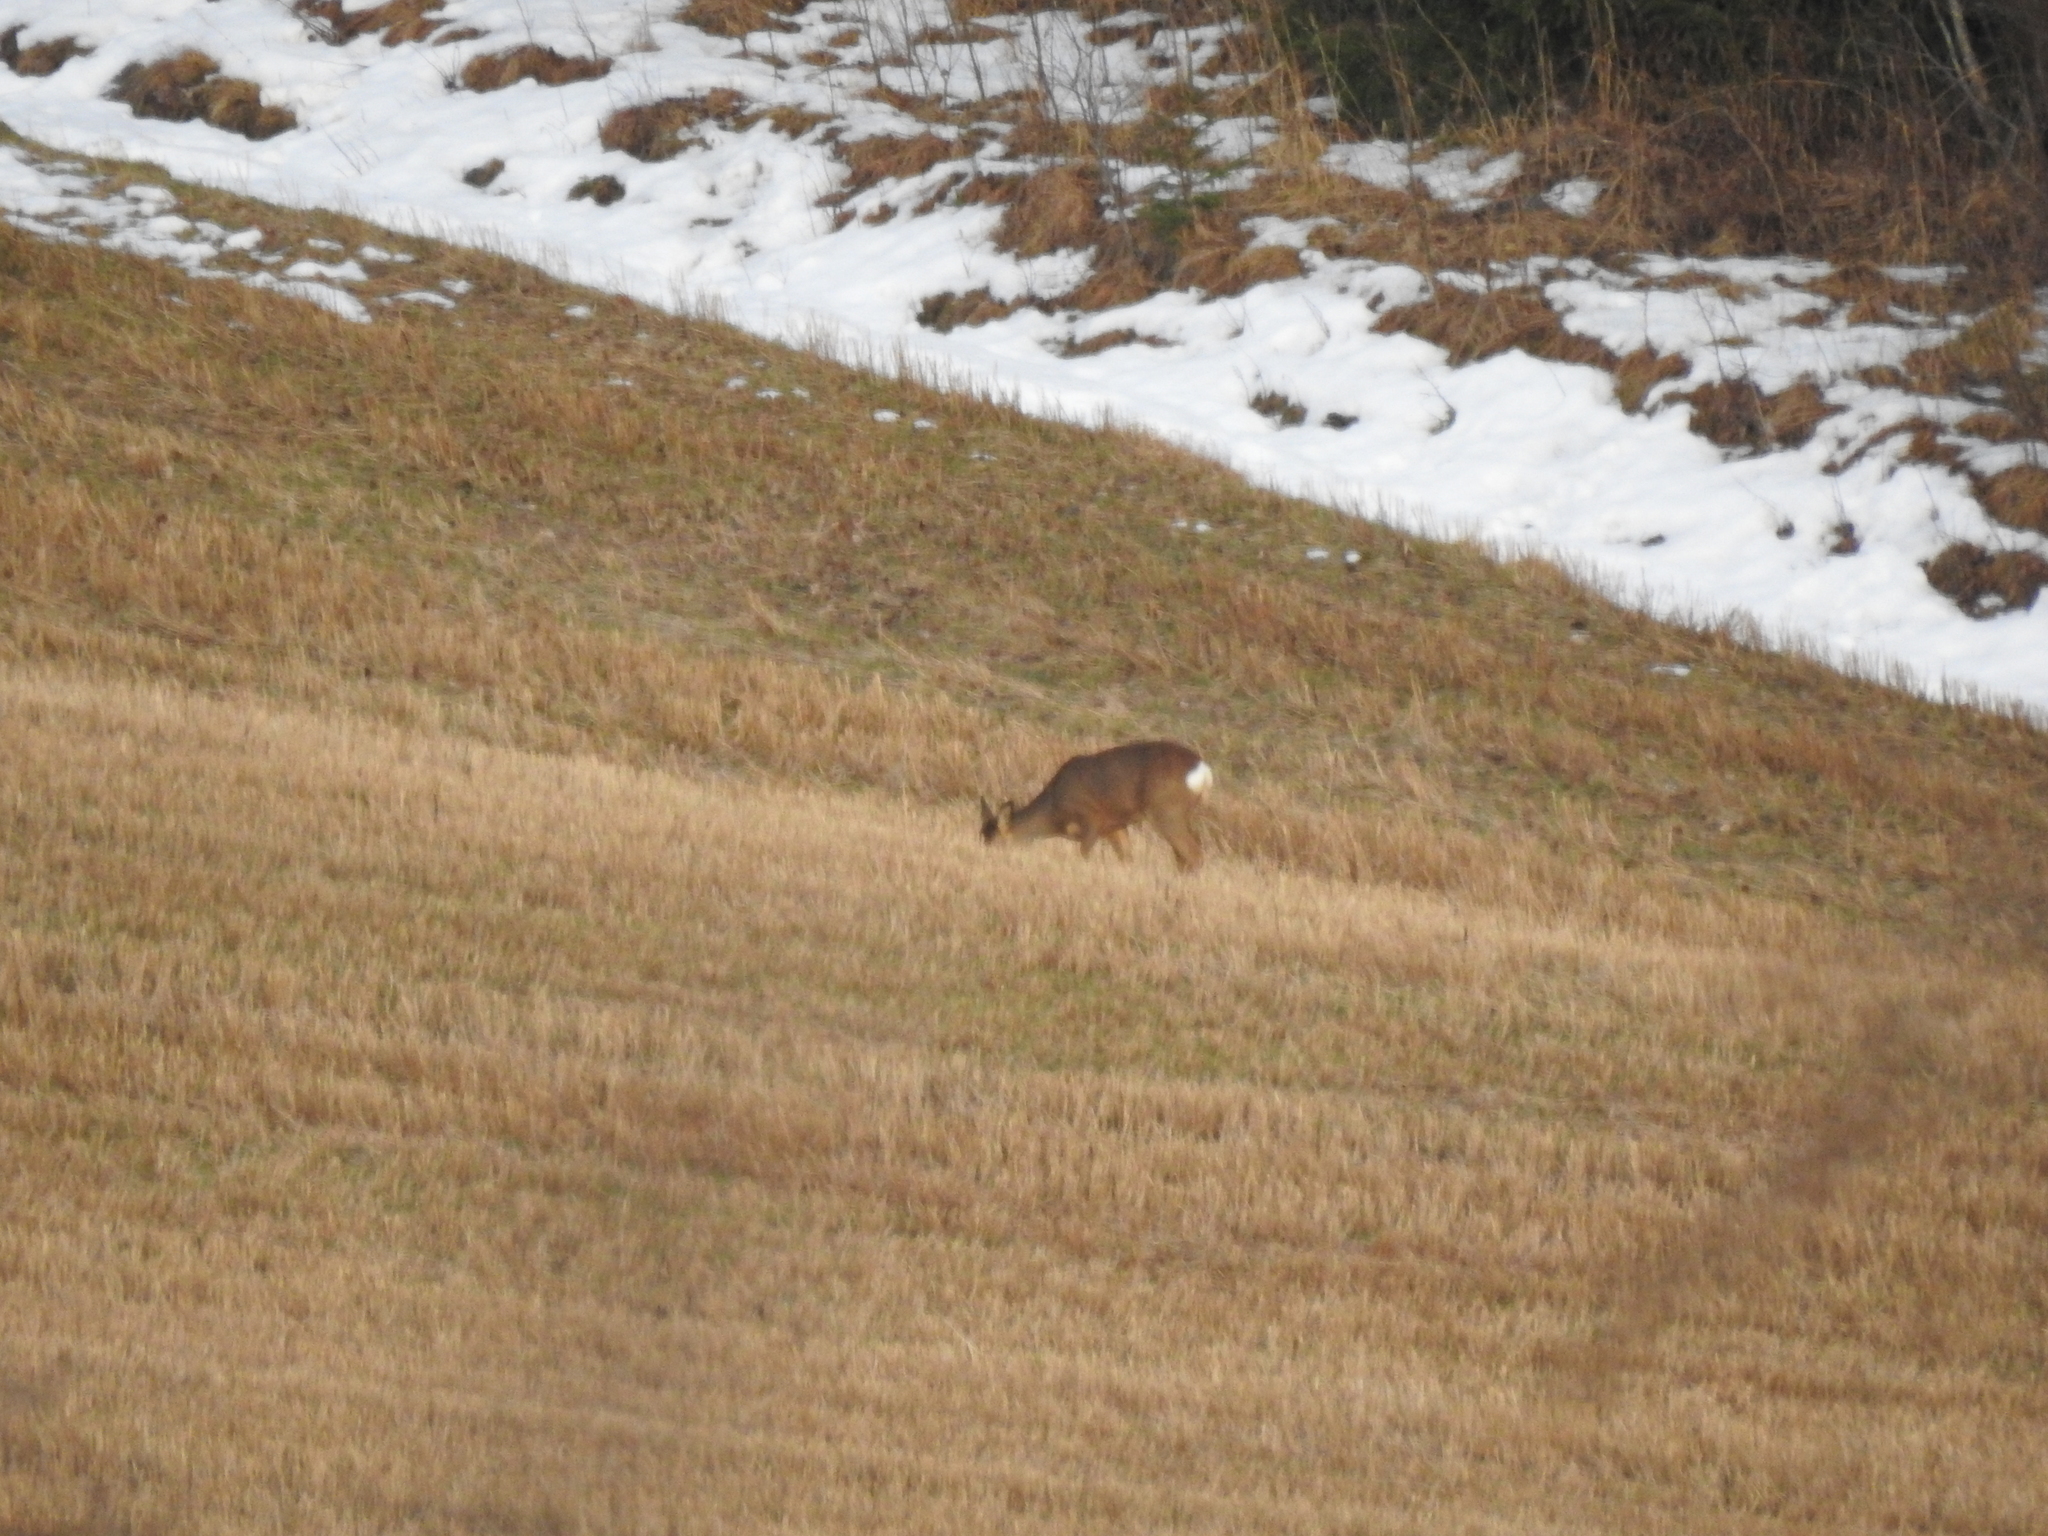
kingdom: Animalia
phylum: Chordata
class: Mammalia
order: Artiodactyla
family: Cervidae
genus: Capreolus
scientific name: Capreolus capreolus
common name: Western roe deer
